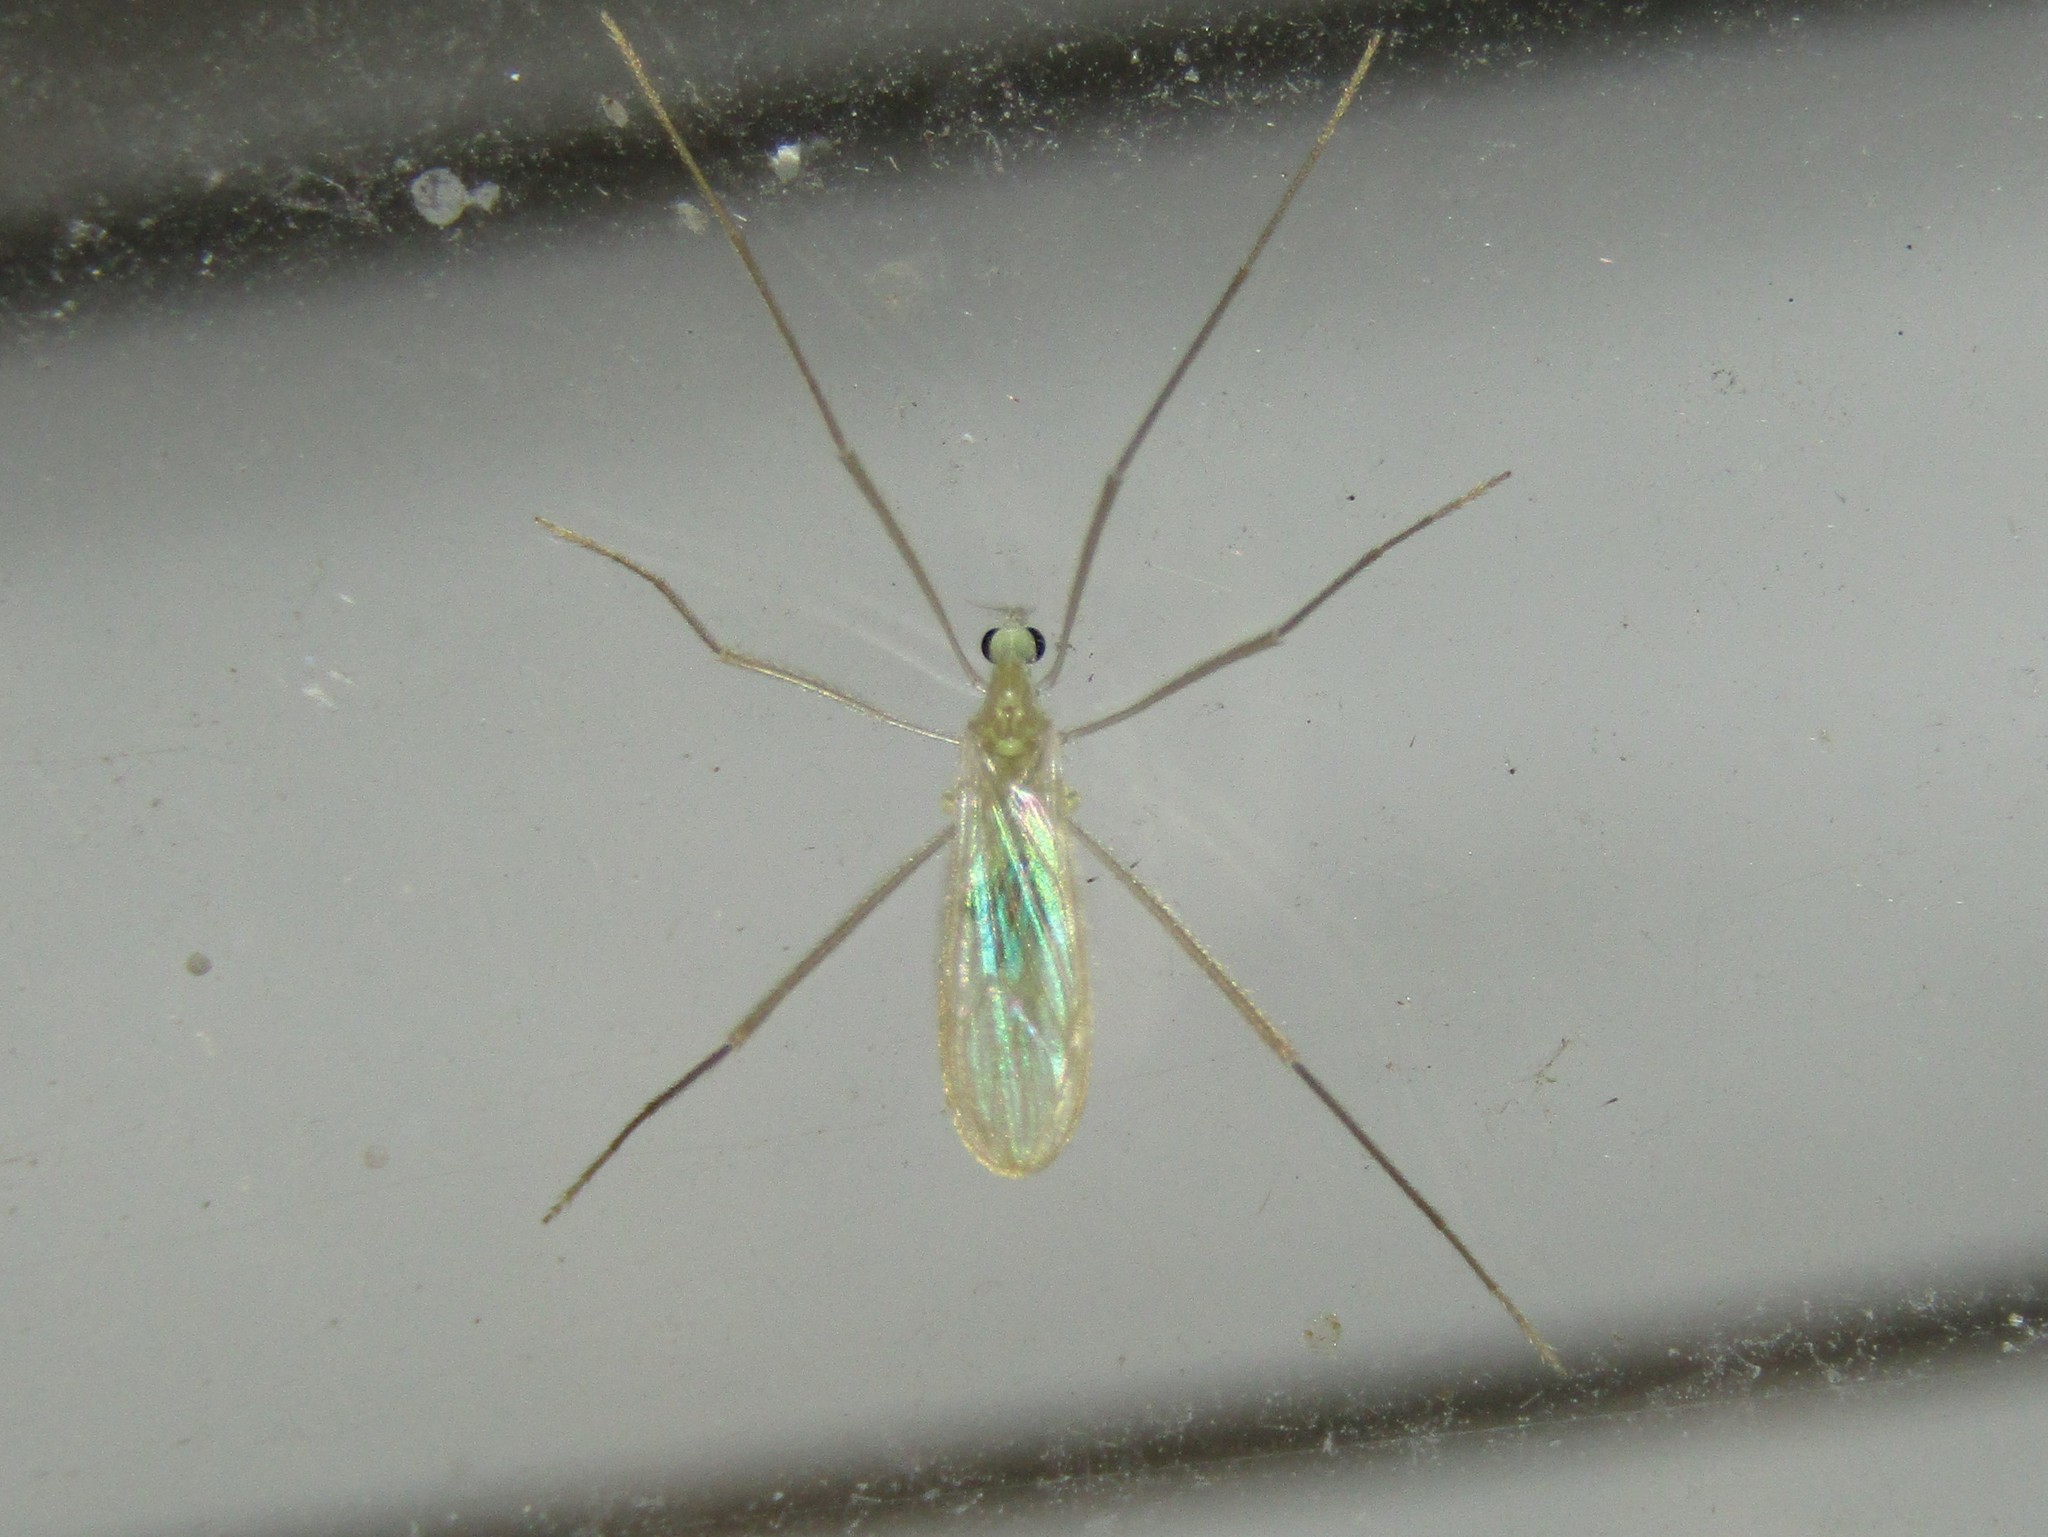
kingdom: Animalia
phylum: Arthropoda
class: Insecta
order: Diptera
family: Limoniidae
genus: Erioptera
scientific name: Erioptera
